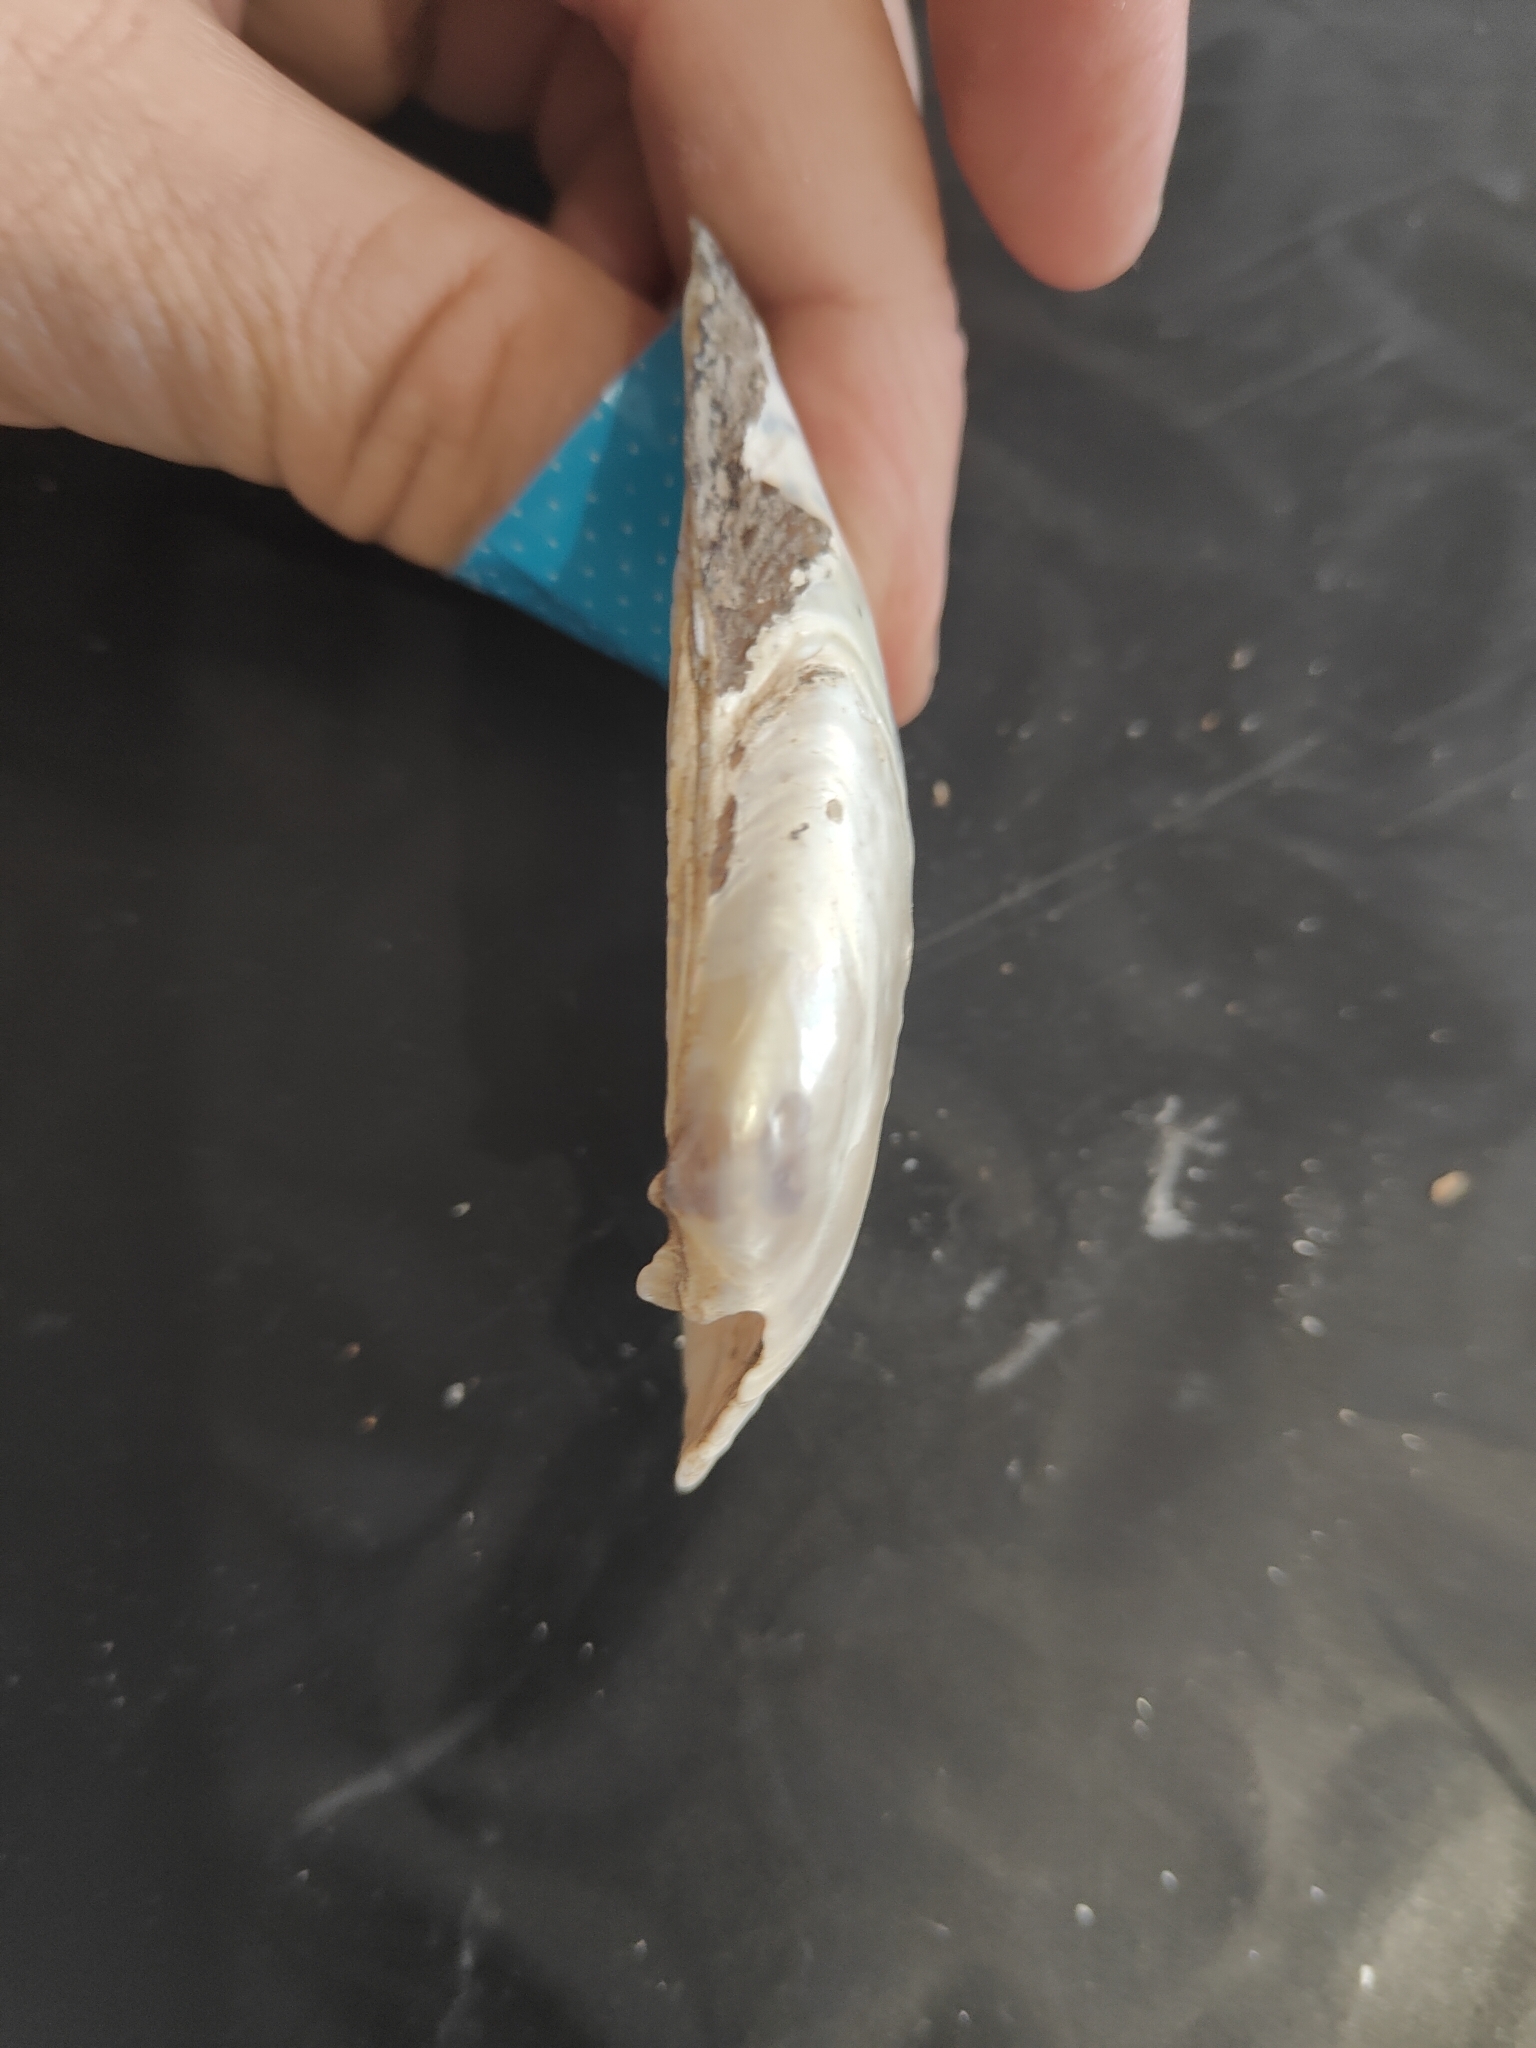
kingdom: Animalia
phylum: Mollusca
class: Bivalvia
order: Unionida
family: Unionidae
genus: Lampsilis
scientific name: Lampsilis teres
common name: Yellow sandshell
